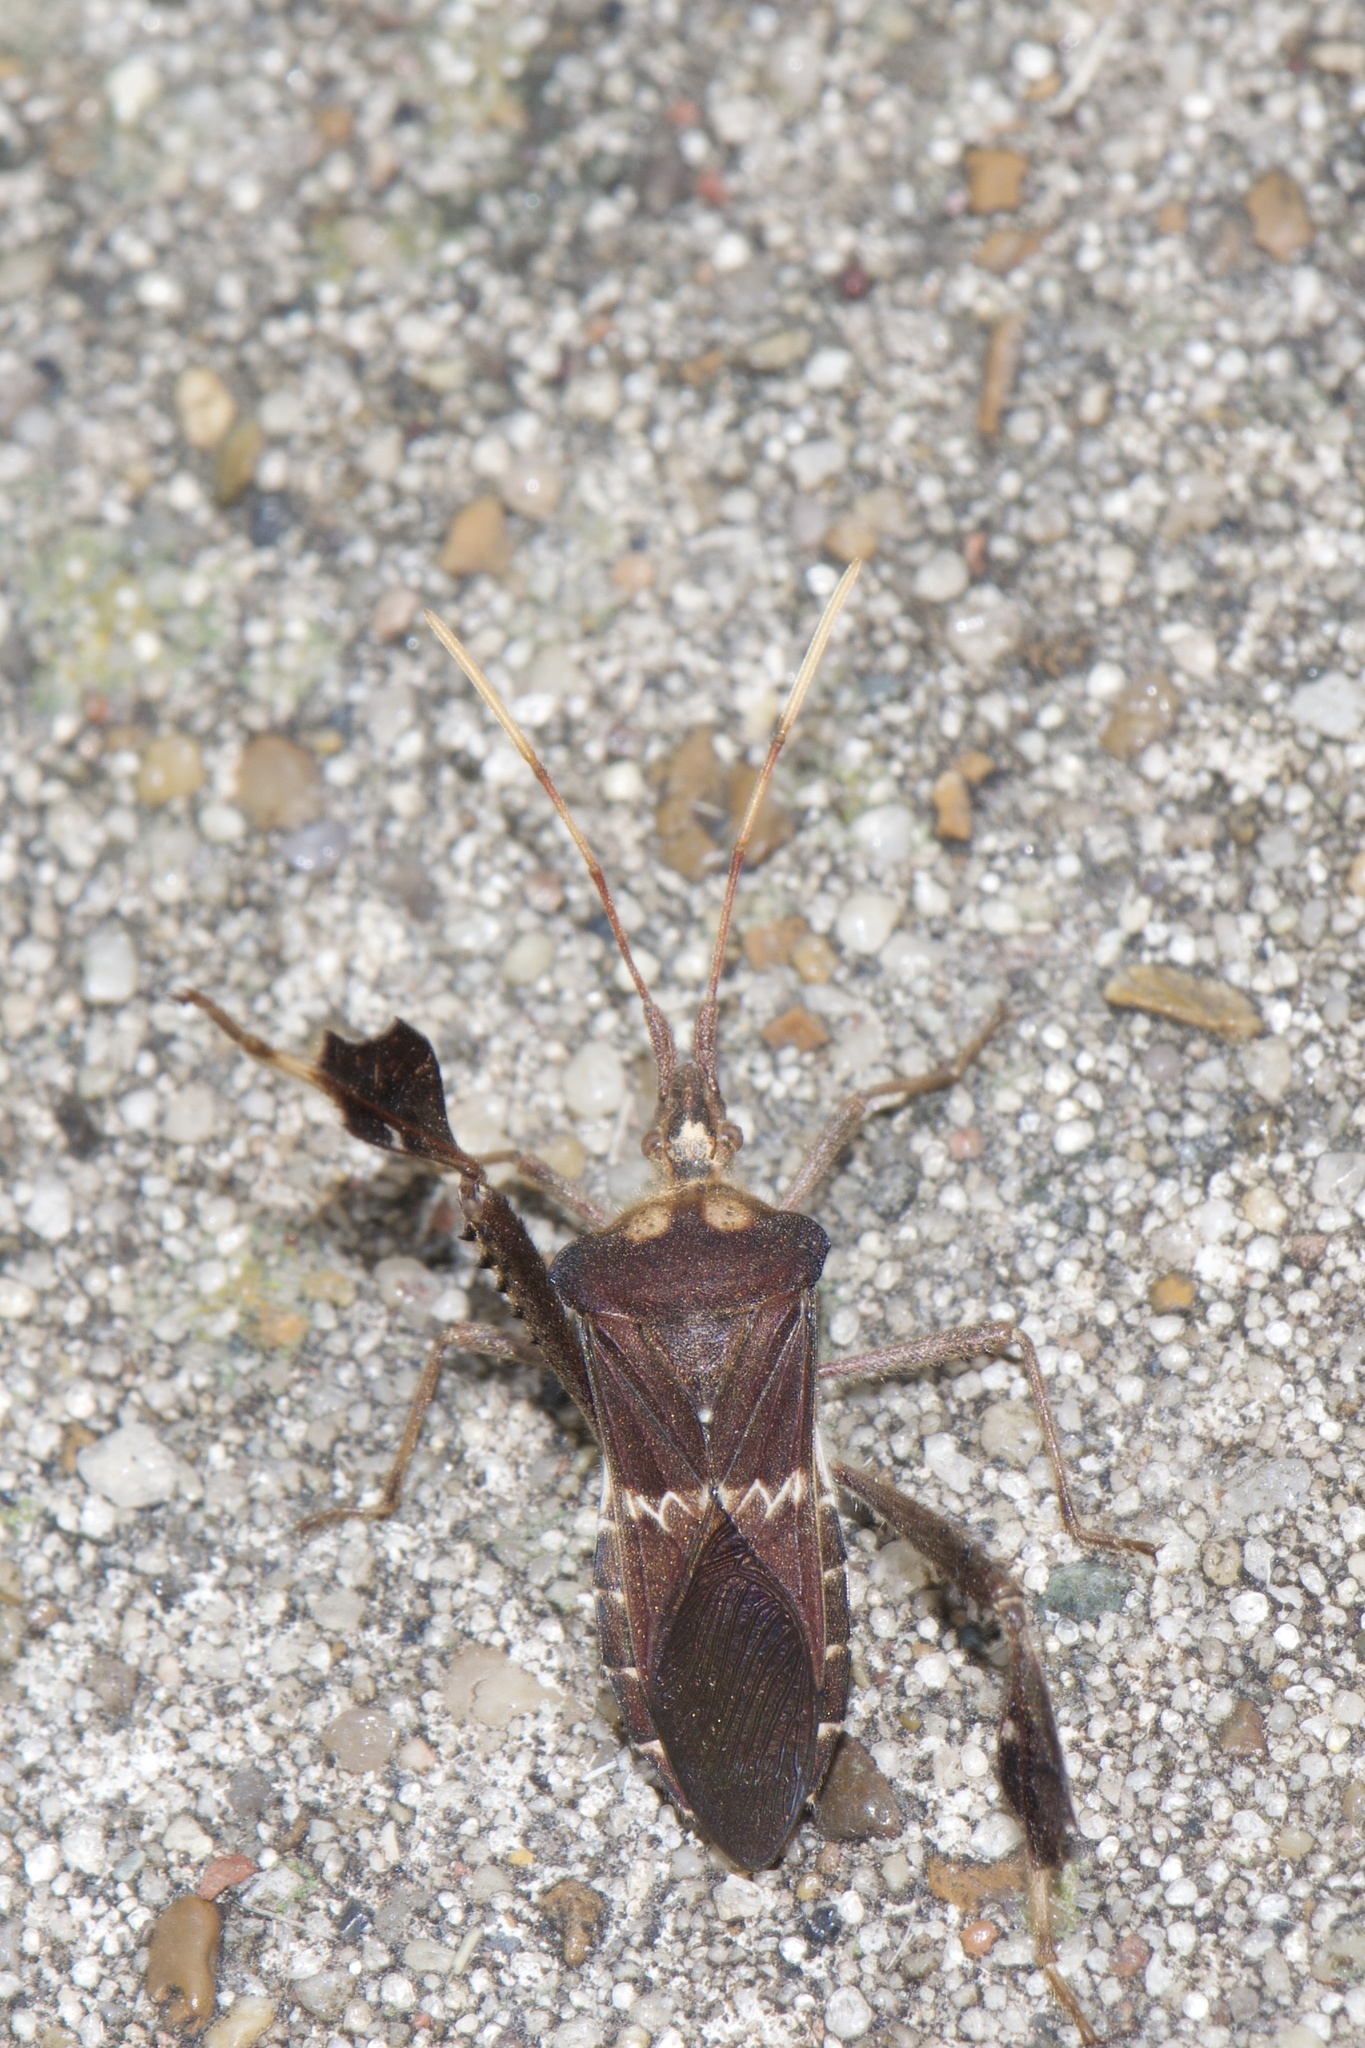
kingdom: Animalia
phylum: Arthropoda
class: Insecta
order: Hemiptera
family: Coreidae
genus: Leptoglossus
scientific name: Leptoglossus zonatus
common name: Large-legged bug
